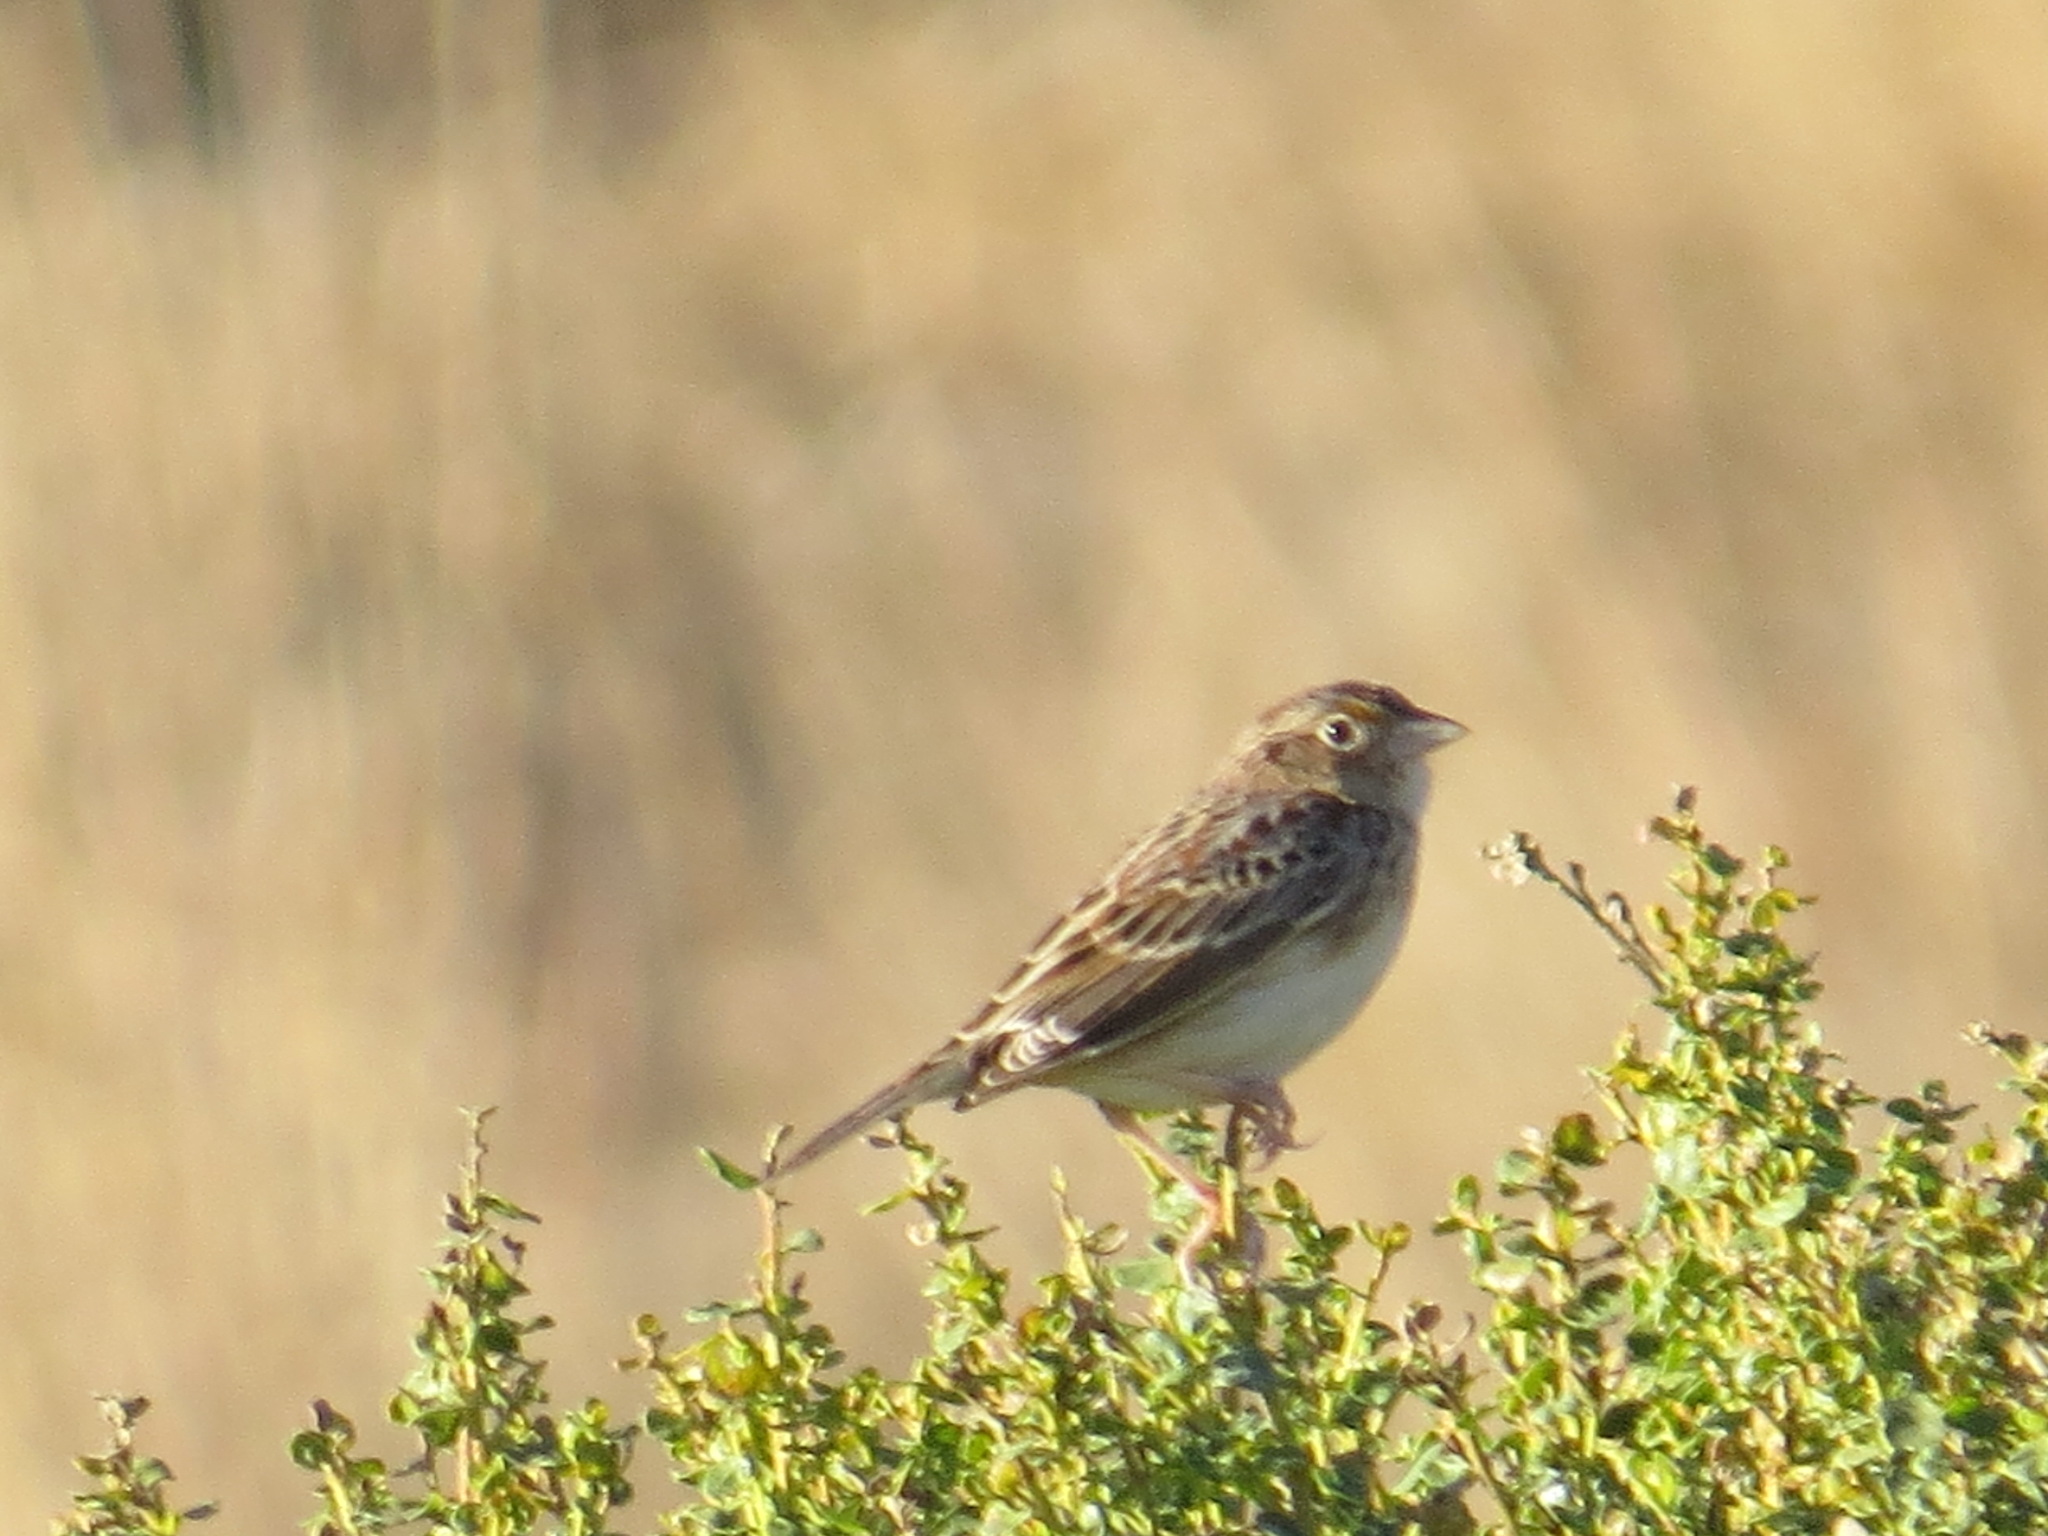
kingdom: Animalia
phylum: Chordata
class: Aves
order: Passeriformes
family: Passerellidae
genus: Ammodramus
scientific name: Ammodramus savannarum
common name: Grasshopper sparrow
